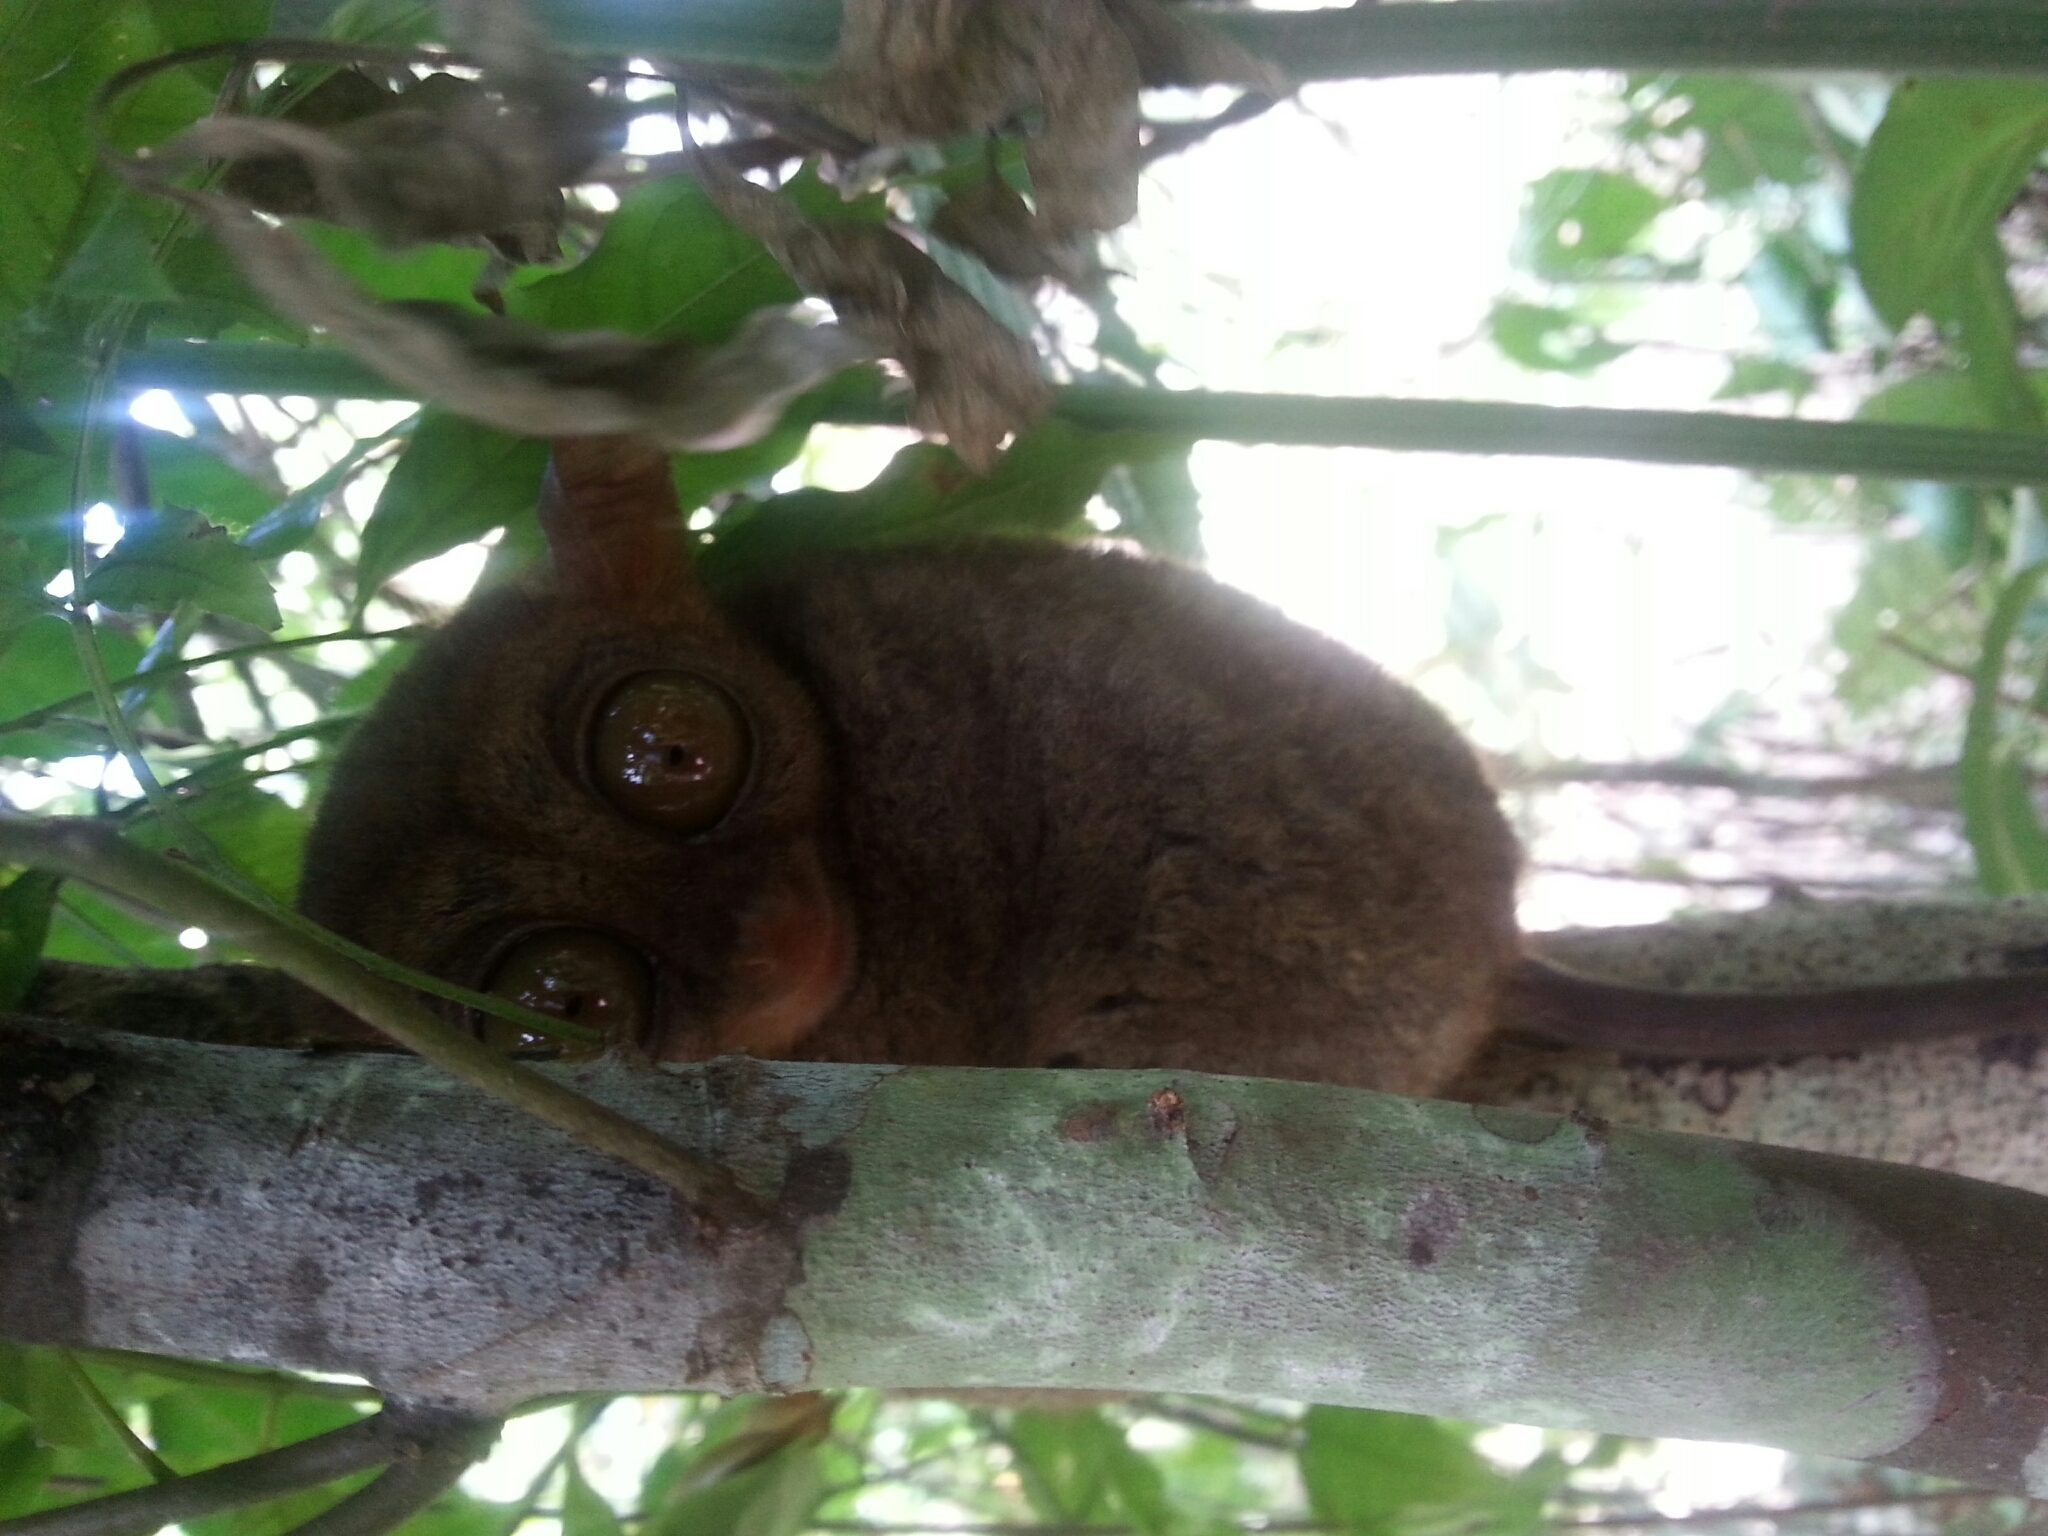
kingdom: Animalia
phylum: Chordata
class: Mammalia
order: Primates
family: Tarsiidae
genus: Carlito
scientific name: Carlito syrichta
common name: Philippine tarsier
